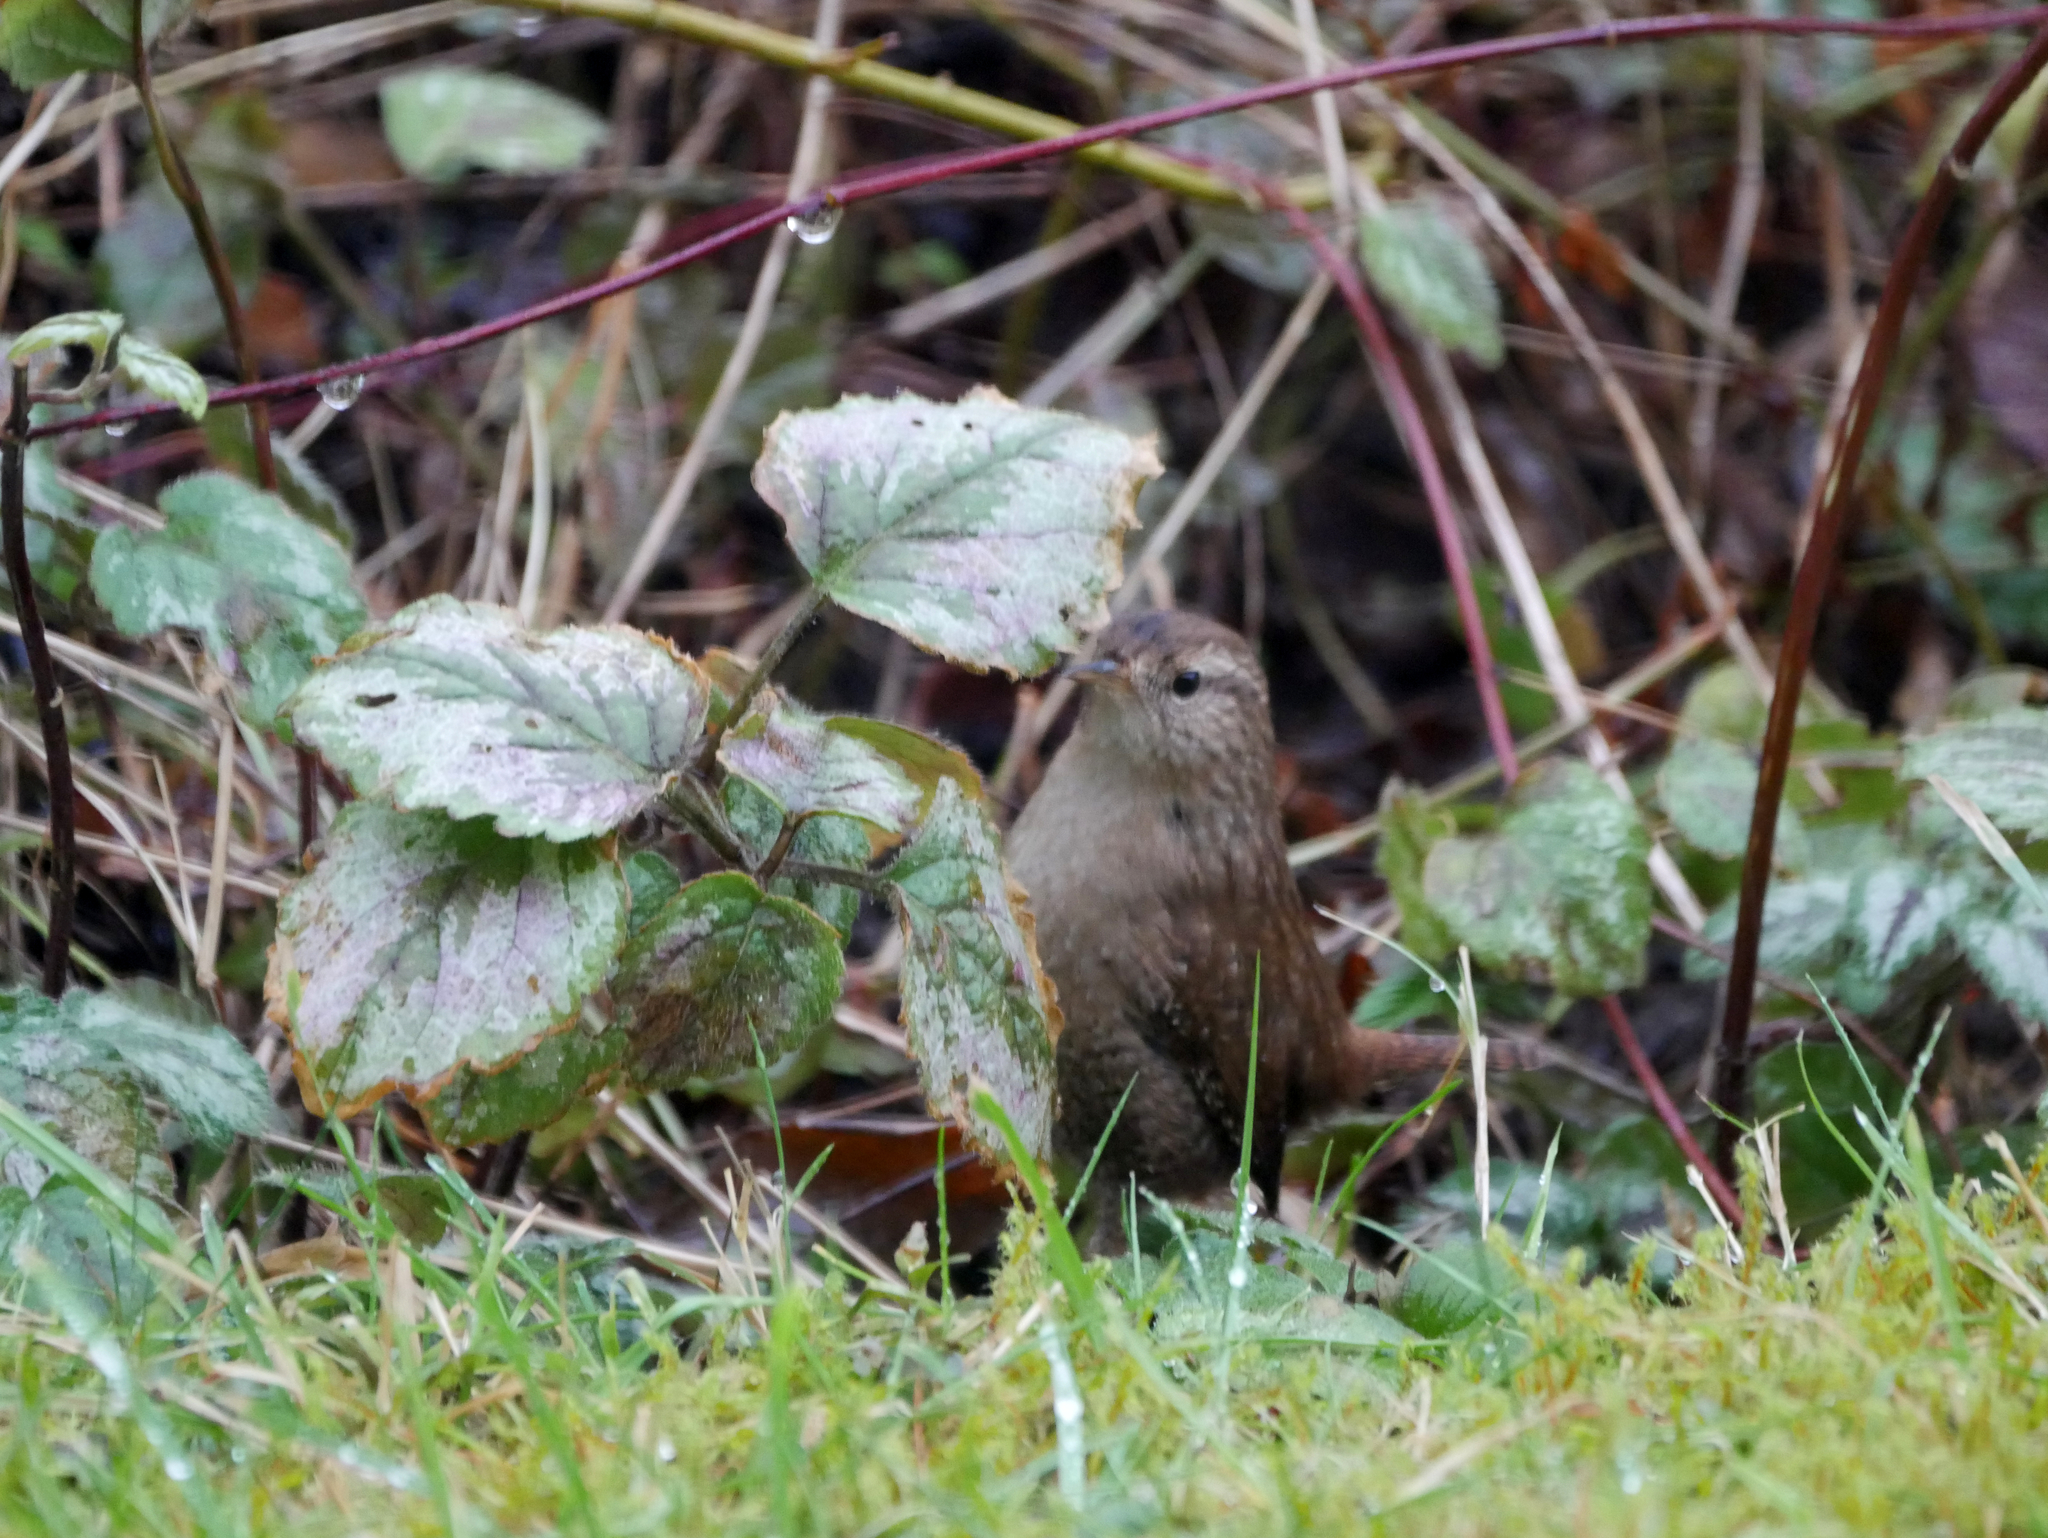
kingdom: Animalia
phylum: Chordata
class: Aves
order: Passeriformes
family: Troglodytidae
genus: Troglodytes
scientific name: Troglodytes troglodytes
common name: Eurasian wren
